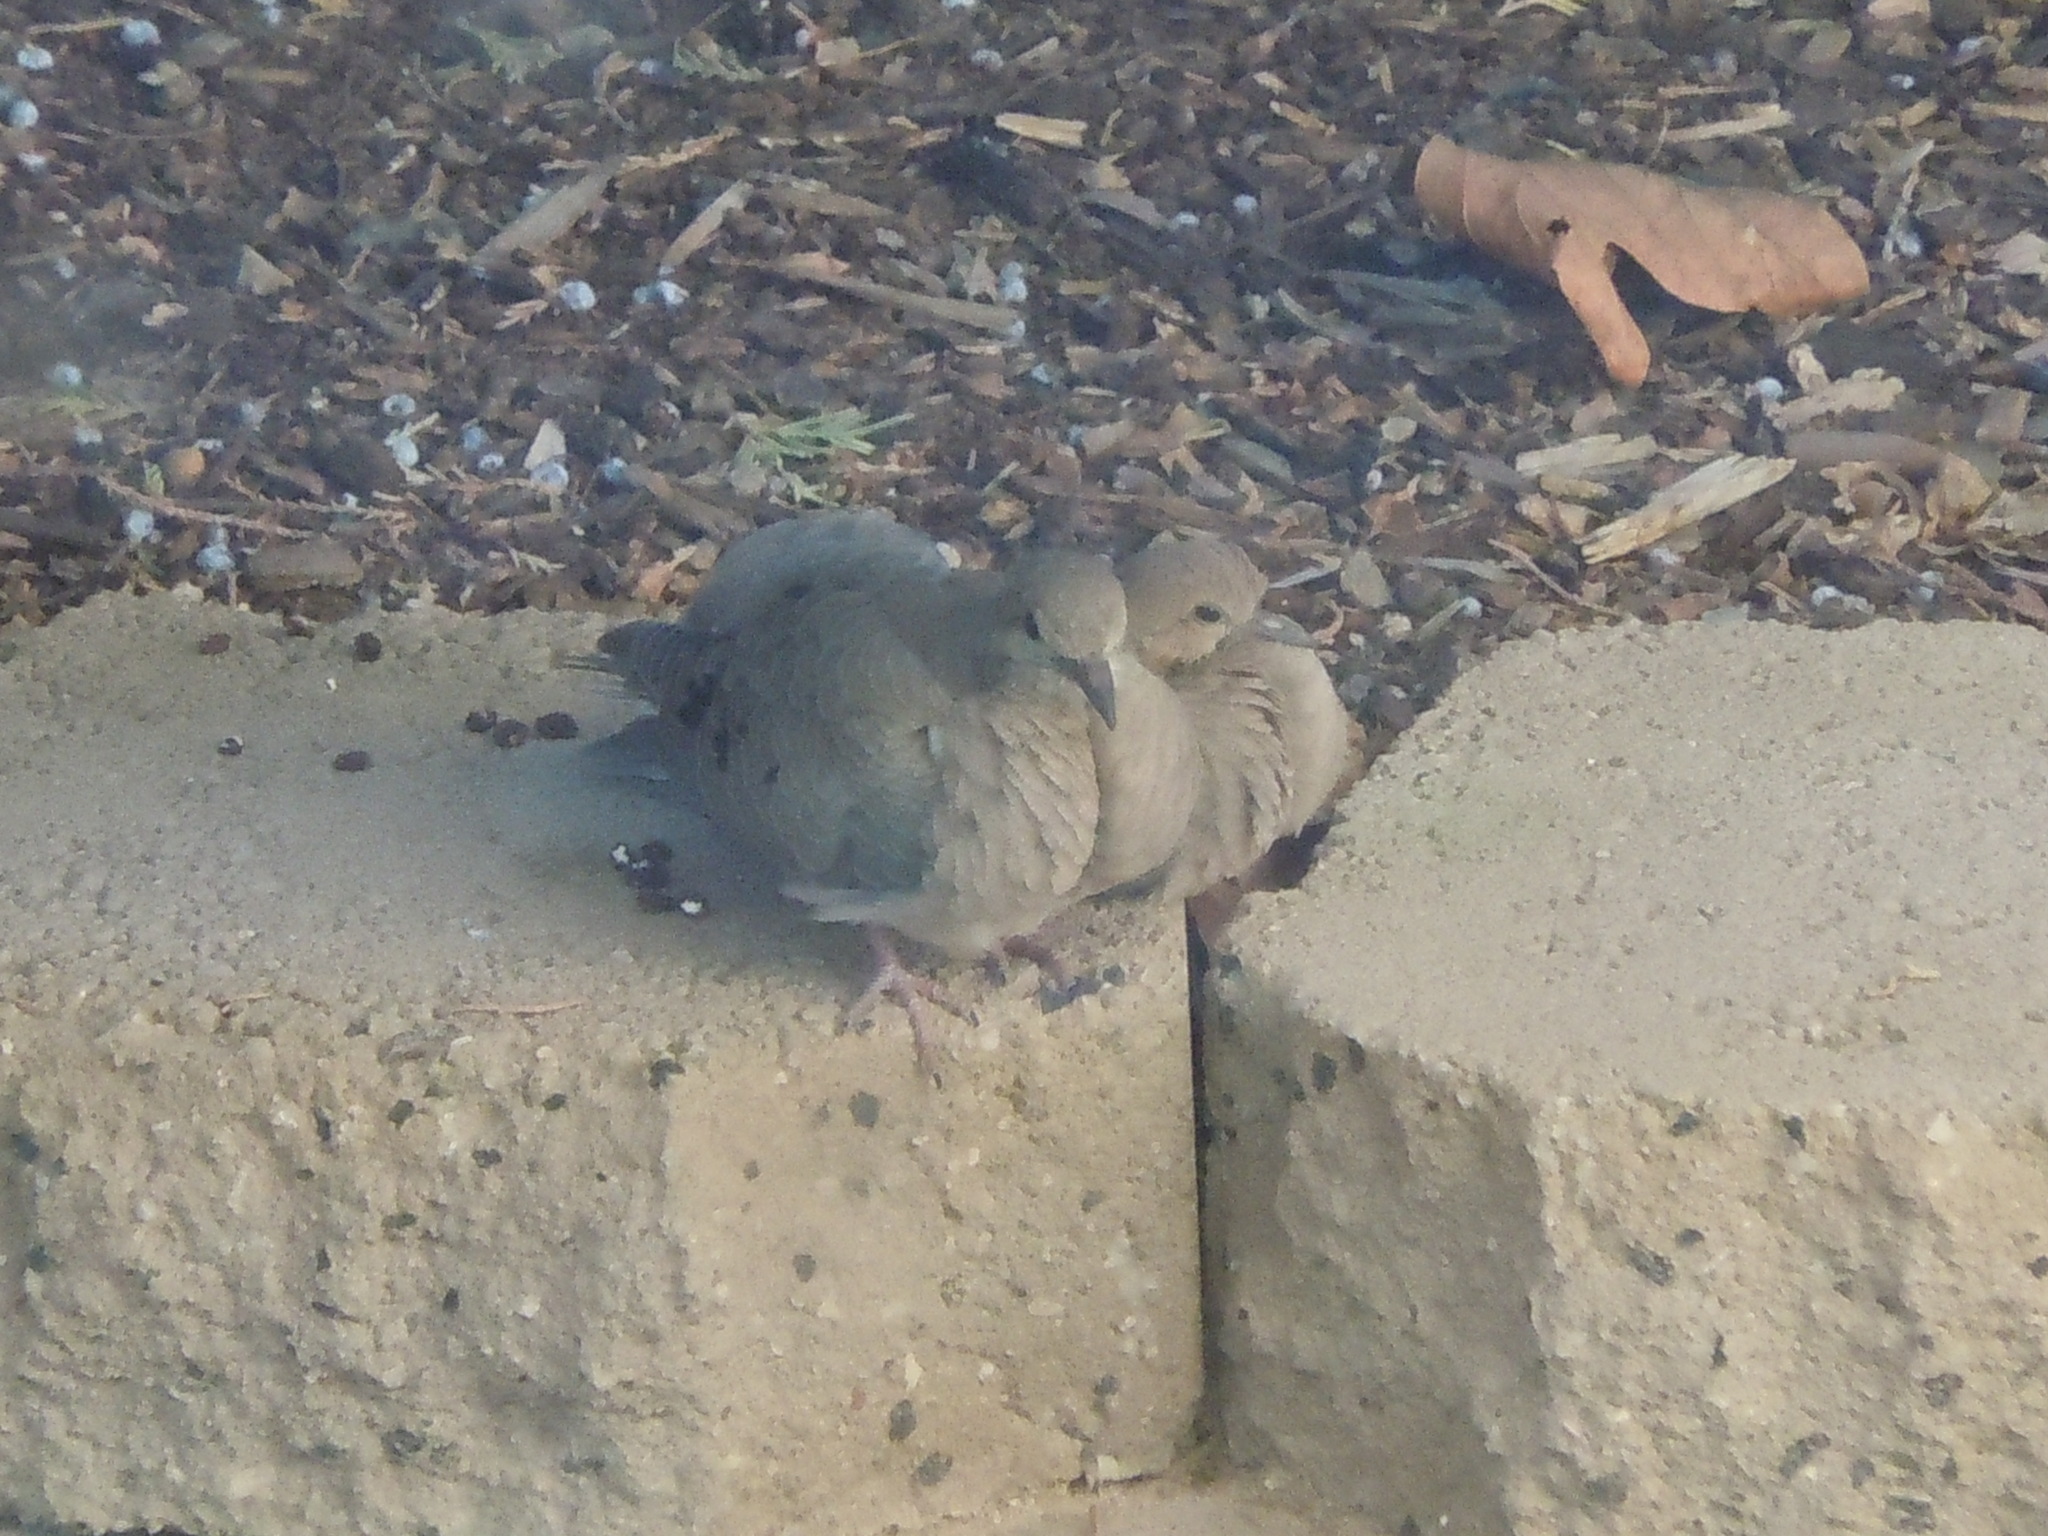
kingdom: Animalia
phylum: Chordata
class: Aves
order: Columbiformes
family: Columbidae
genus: Zenaida
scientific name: Zenaida macroura
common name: Mourning dove
